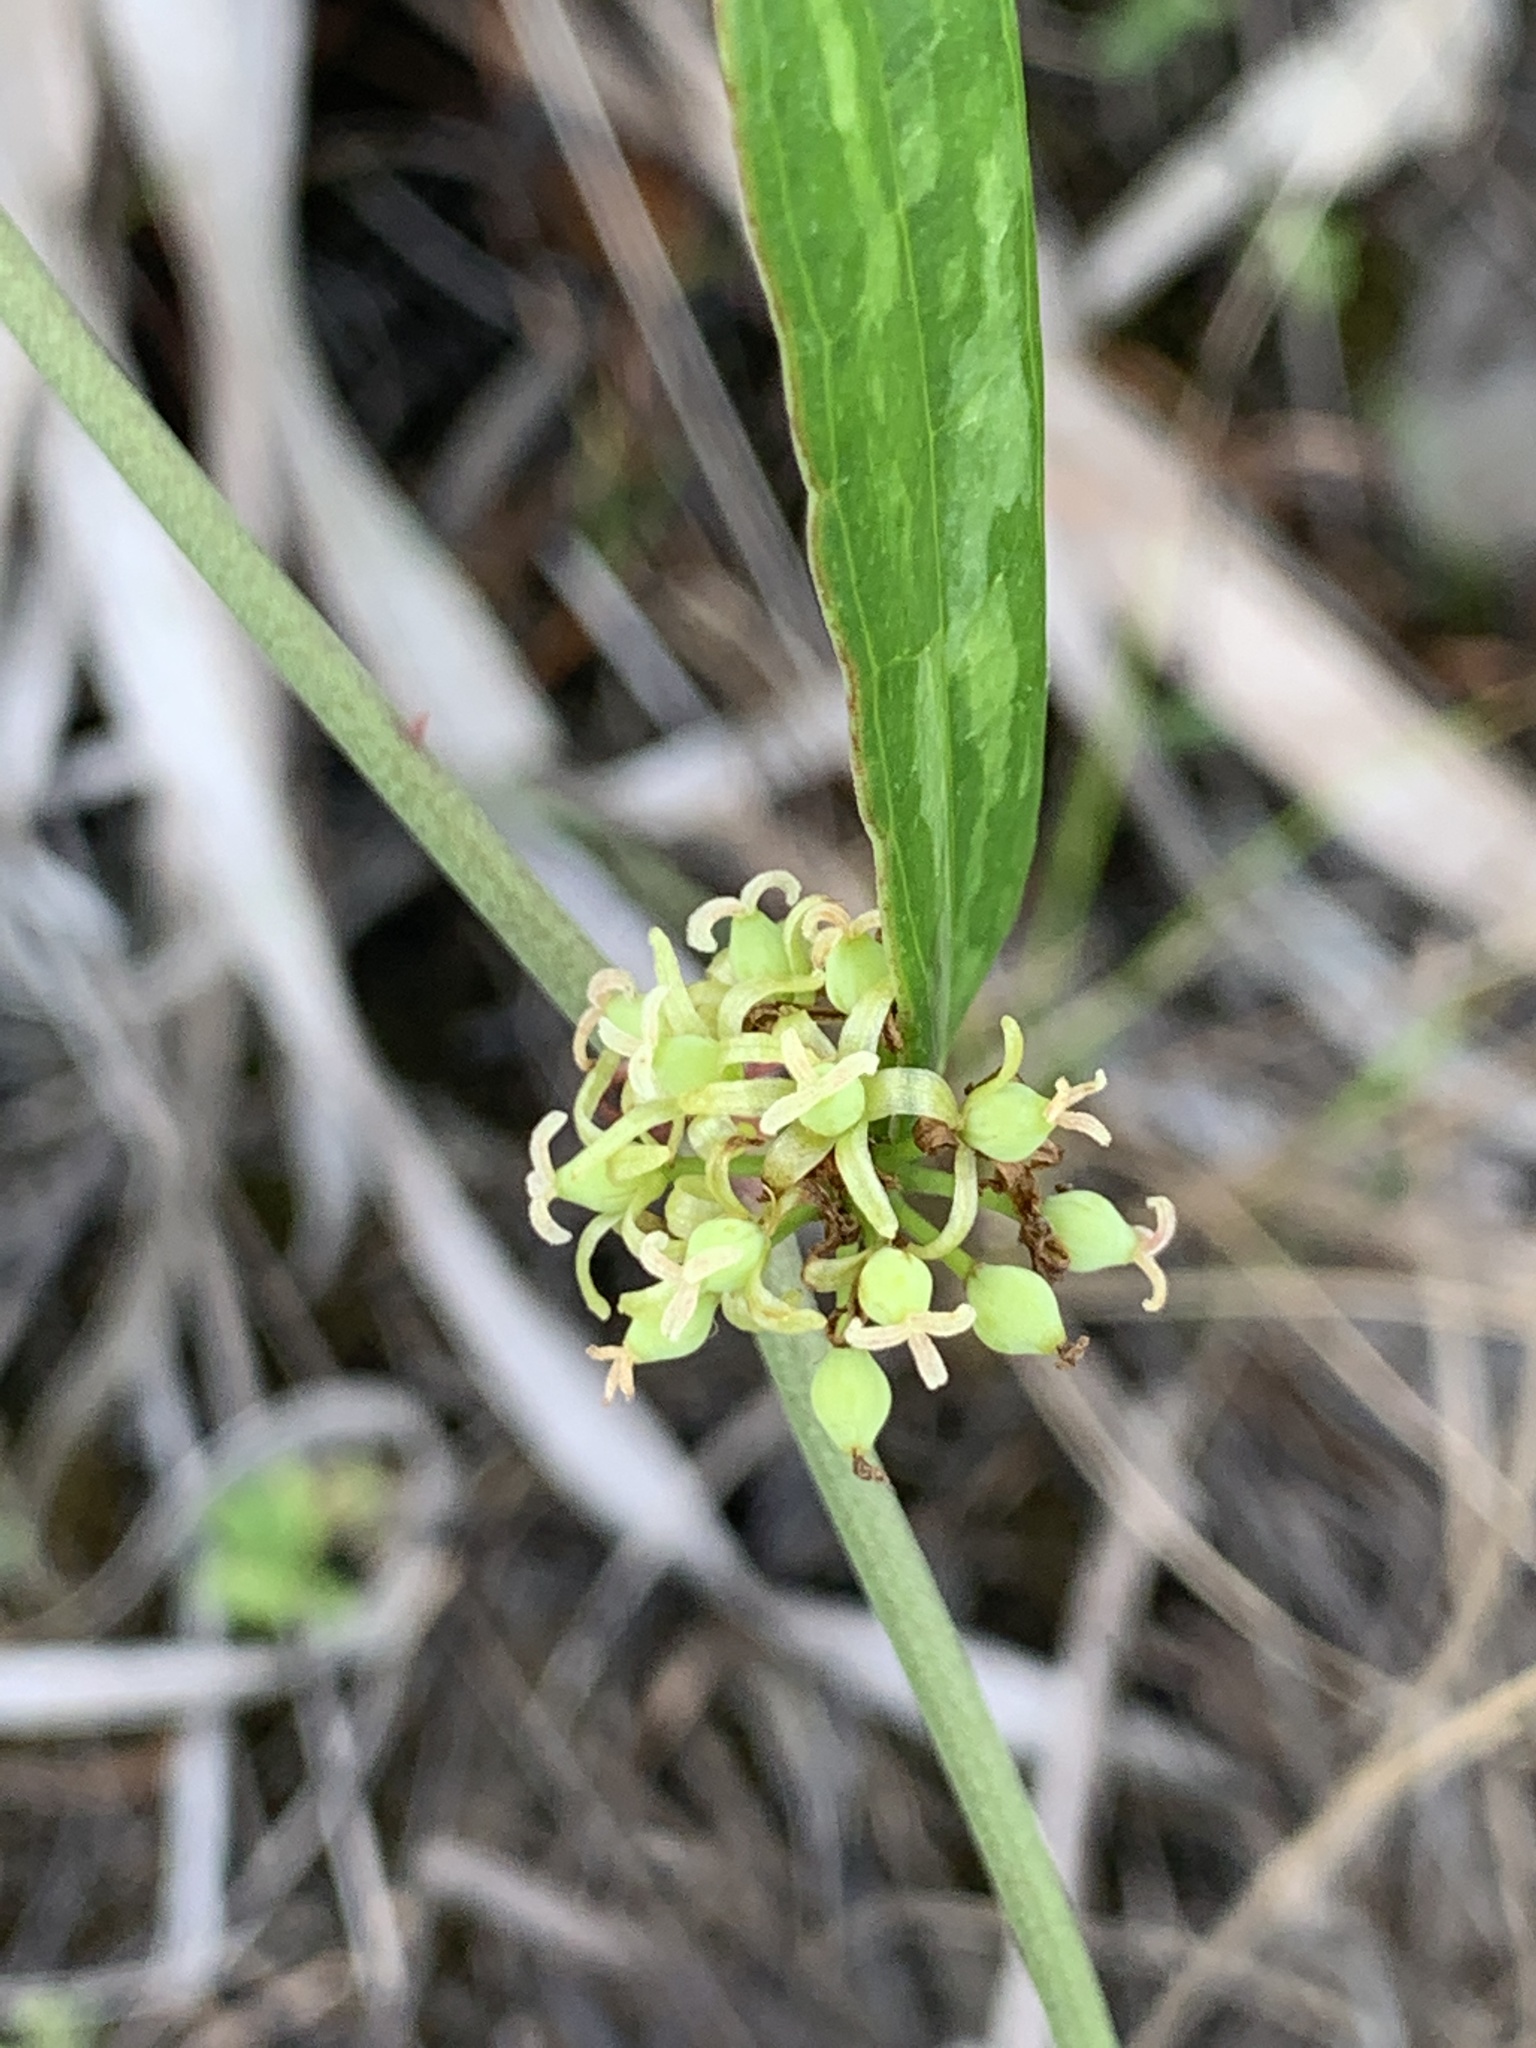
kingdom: Plantae
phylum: Tracheophyta
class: Liliopsida
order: Liliales
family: Smilacaceae
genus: Smilax
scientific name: Smilax auriculata
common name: Wild bamboo
